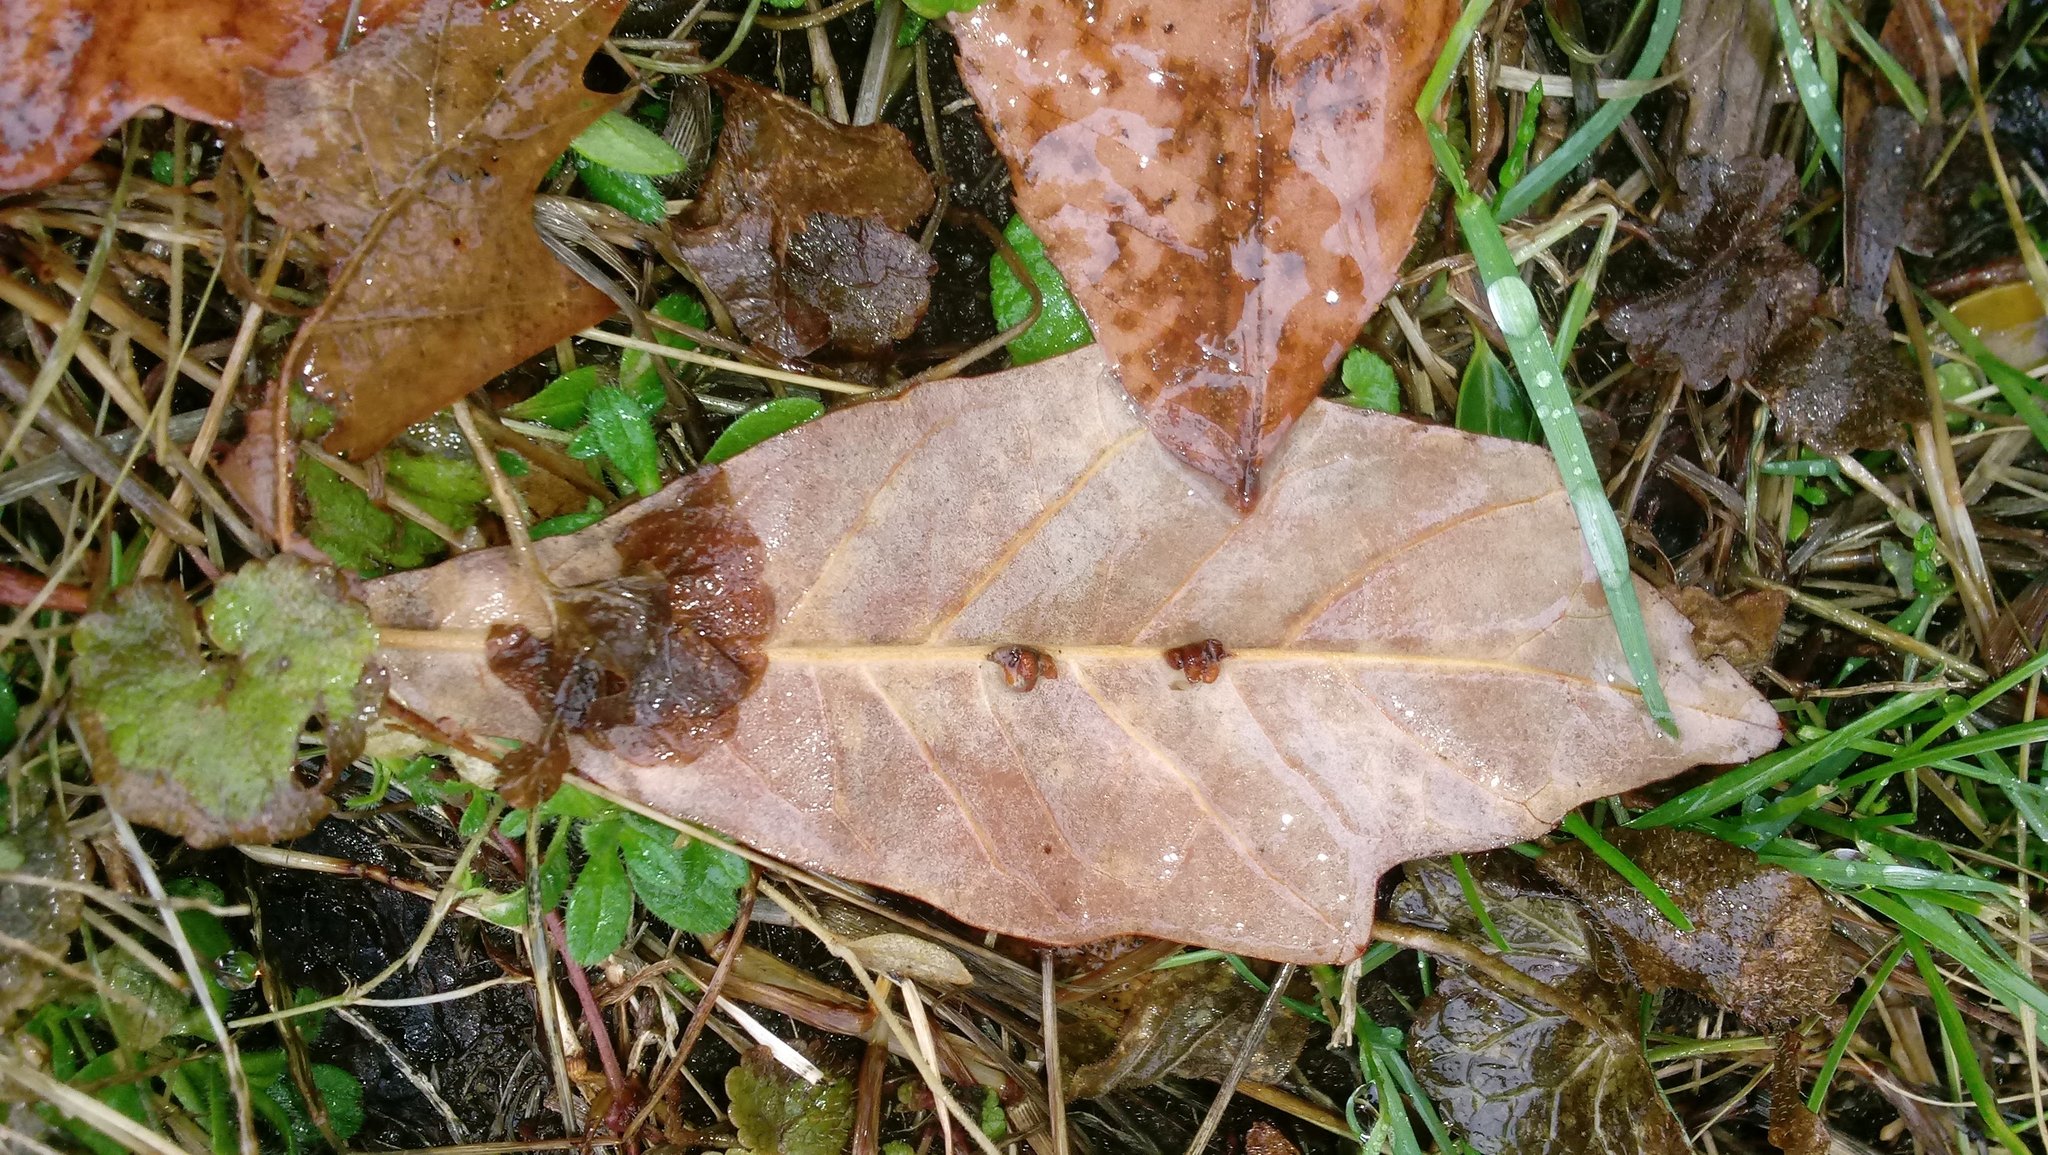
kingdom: Animalia
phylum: Arthropoda
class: Insecta
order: Hymenoptera
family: Cynipidae
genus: Andricus
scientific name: Andricus Druon ignotum
